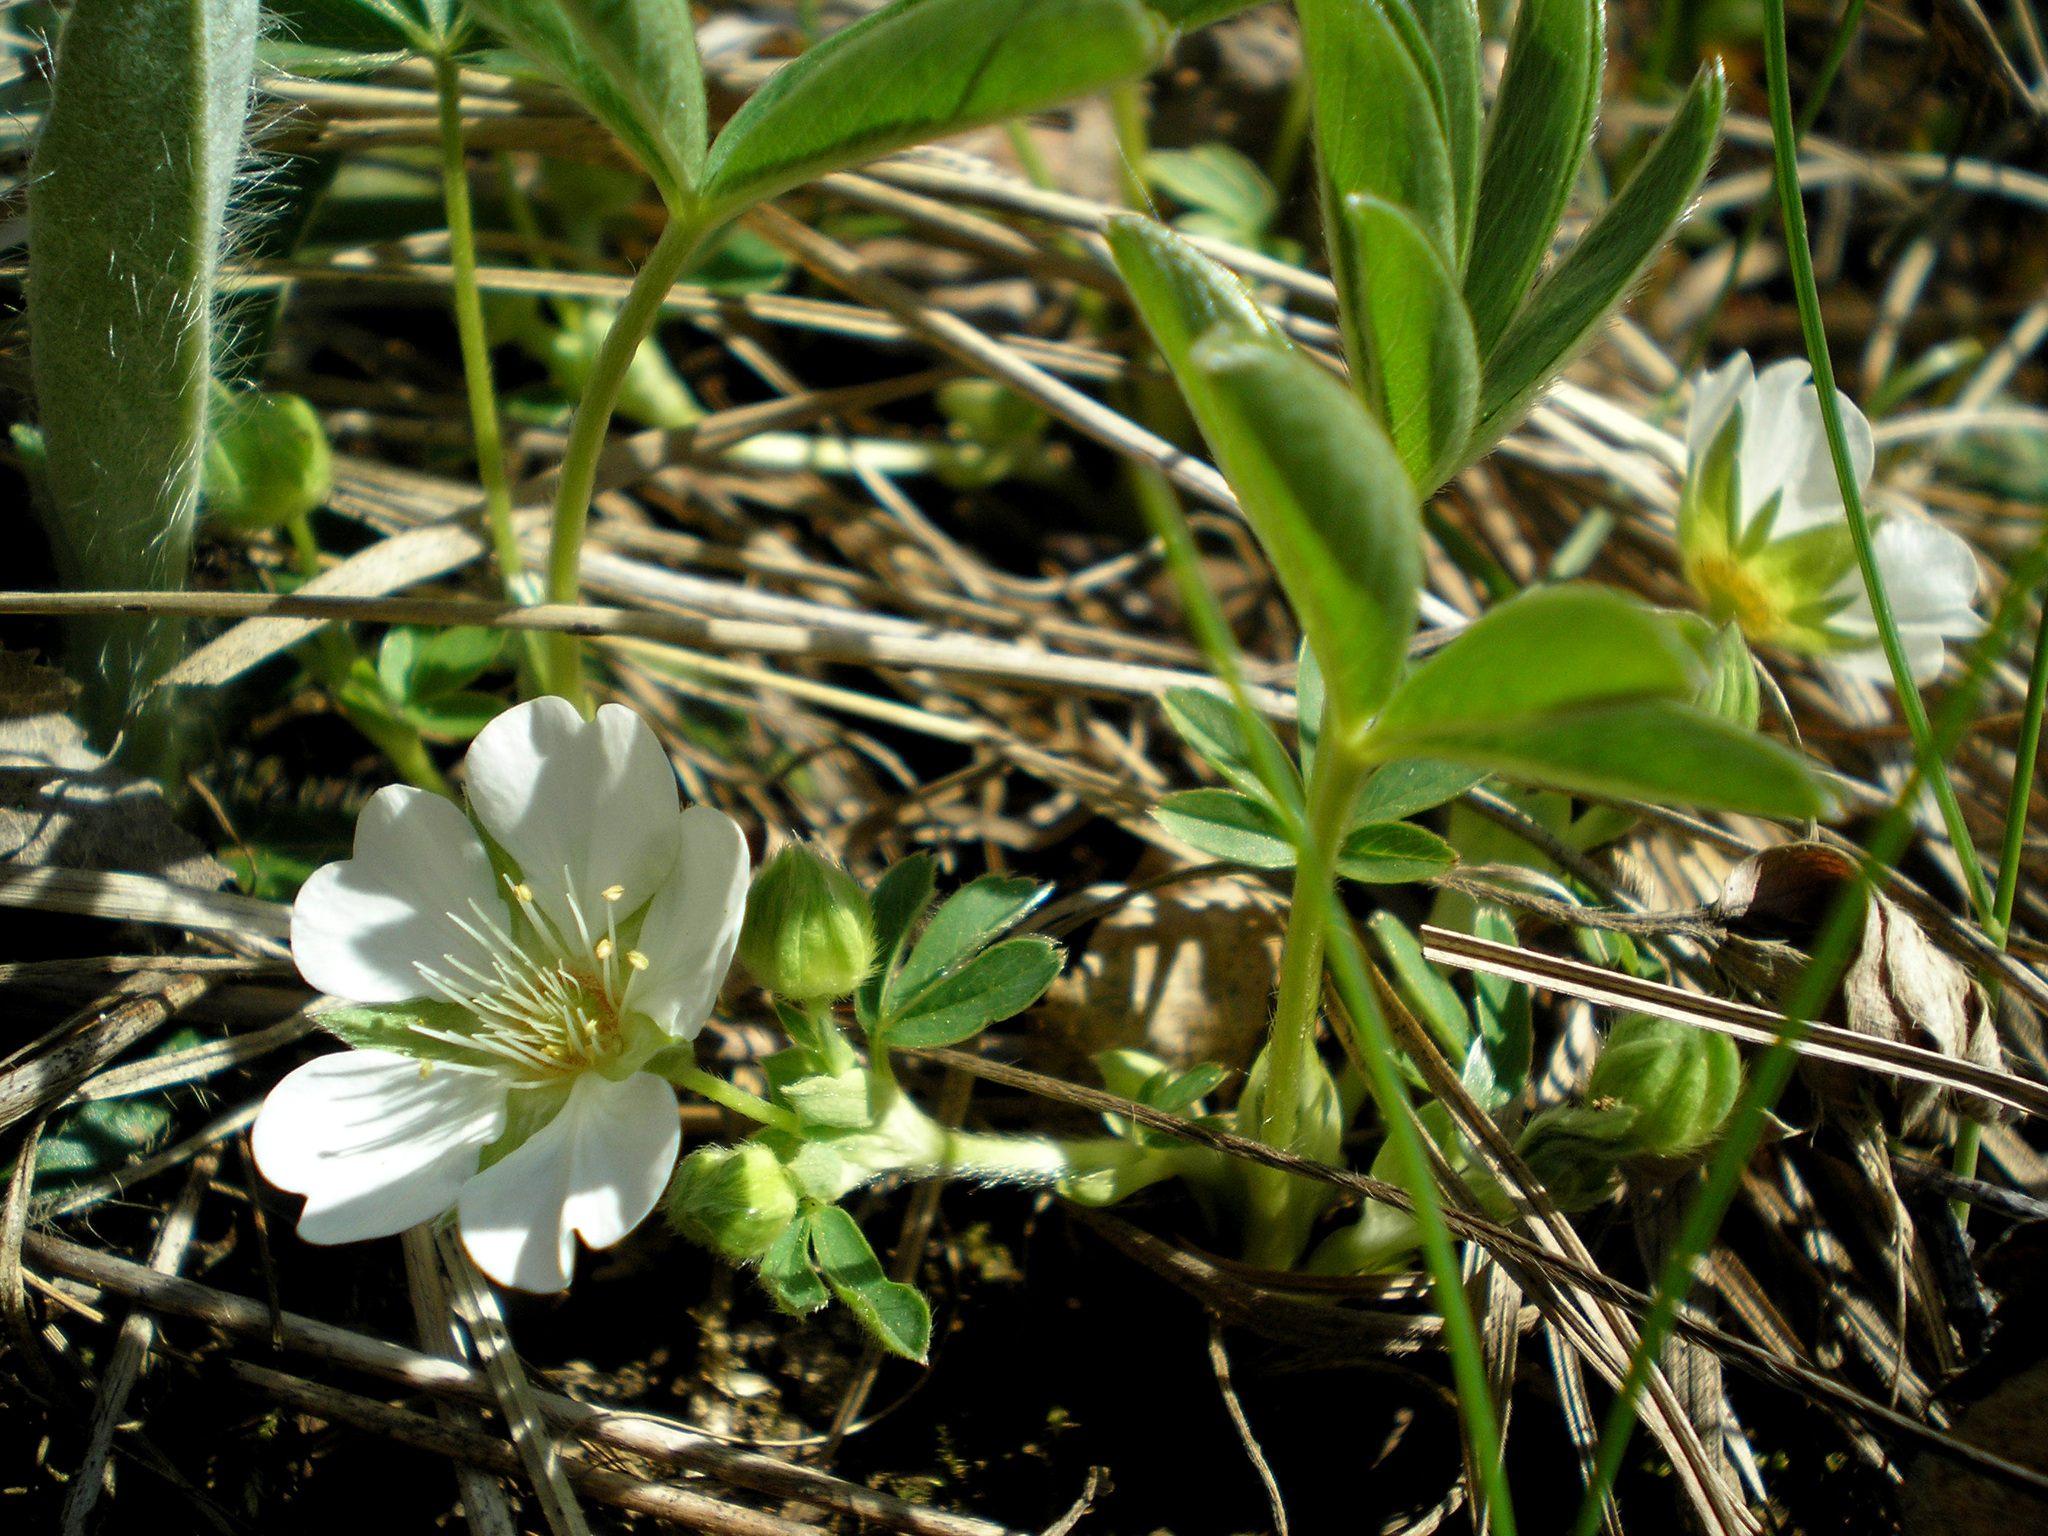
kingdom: Plantae
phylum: Tracheophyta
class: Magnoliopsida
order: Rosales
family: Rosaceae
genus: Potentilla
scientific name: Potentilla alba
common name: White cinquefoil
